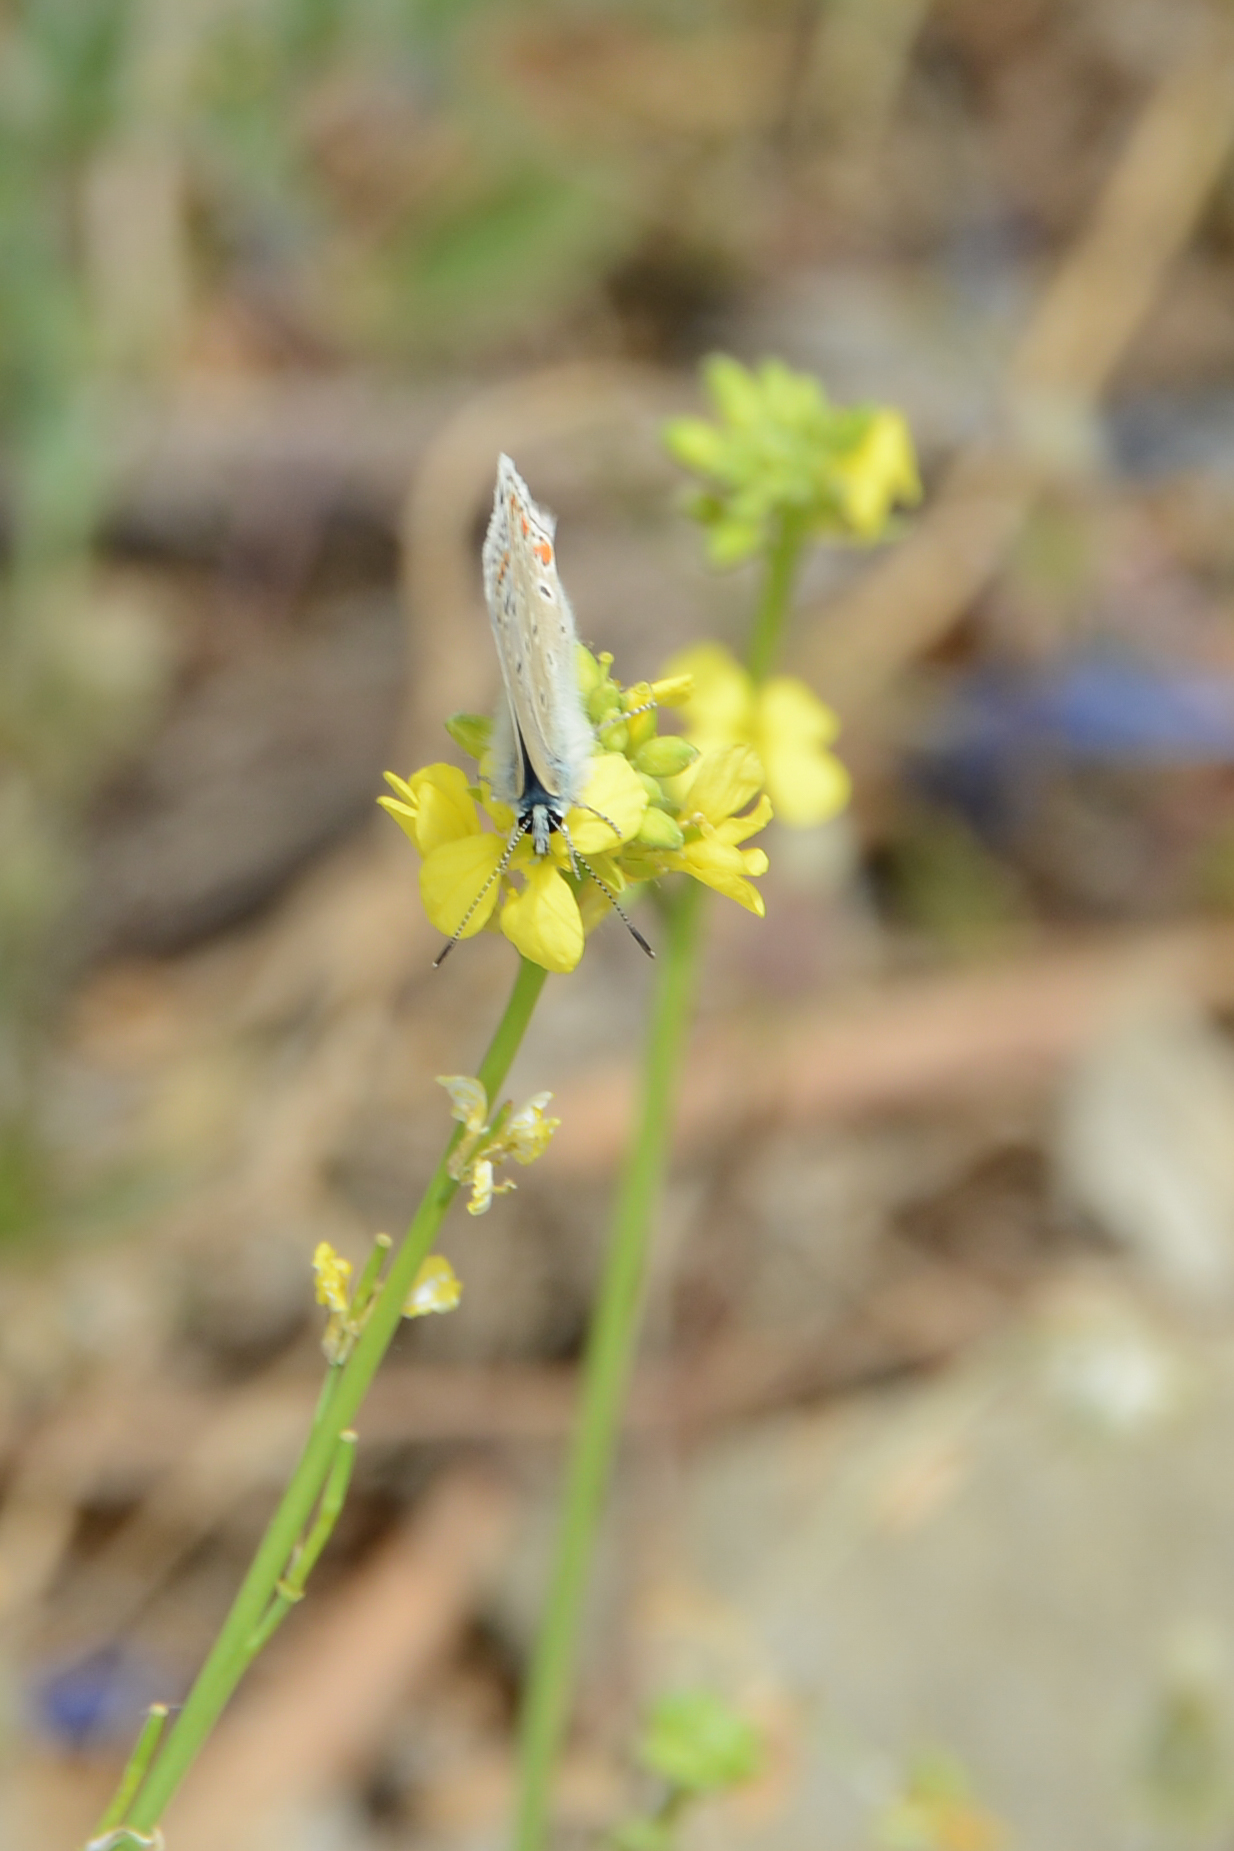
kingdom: Animalia
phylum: Arthropoda
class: Insecta
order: Lepidoptera
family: Lycaenidae
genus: Polyommatus
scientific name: Polyommatus icarus
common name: Common blue
